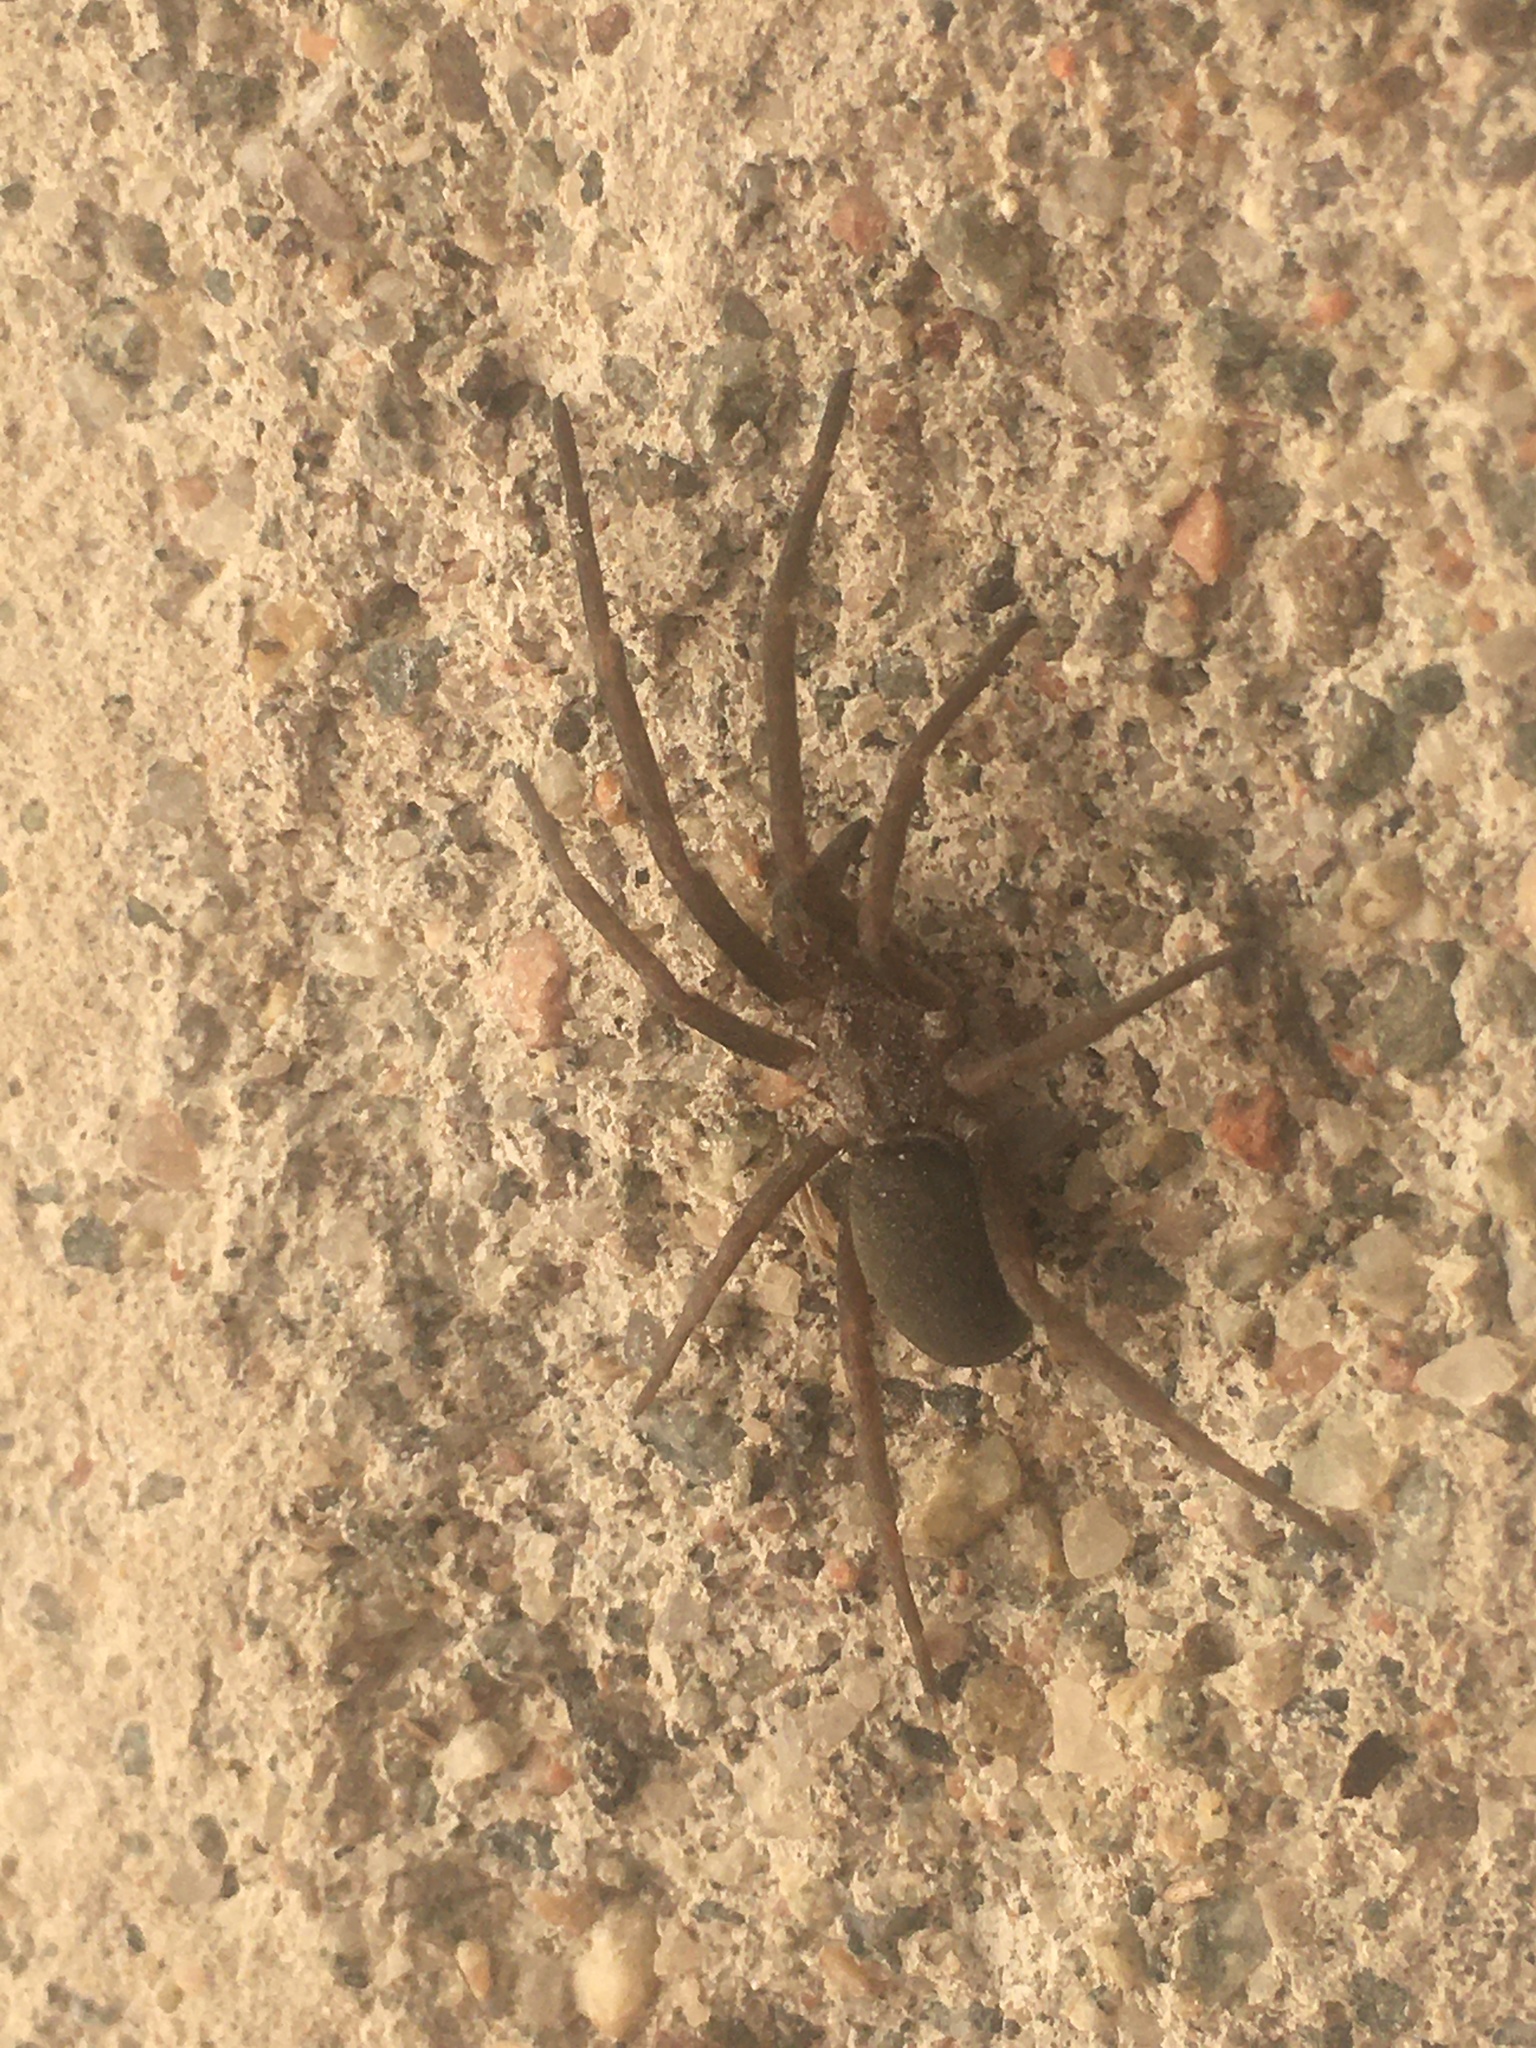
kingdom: Animalia
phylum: Arthropoda
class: Arachnida
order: Araneae
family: Filistatidae
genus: Kukulcania
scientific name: Kukulcania hibernalis
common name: Crevice weaver
